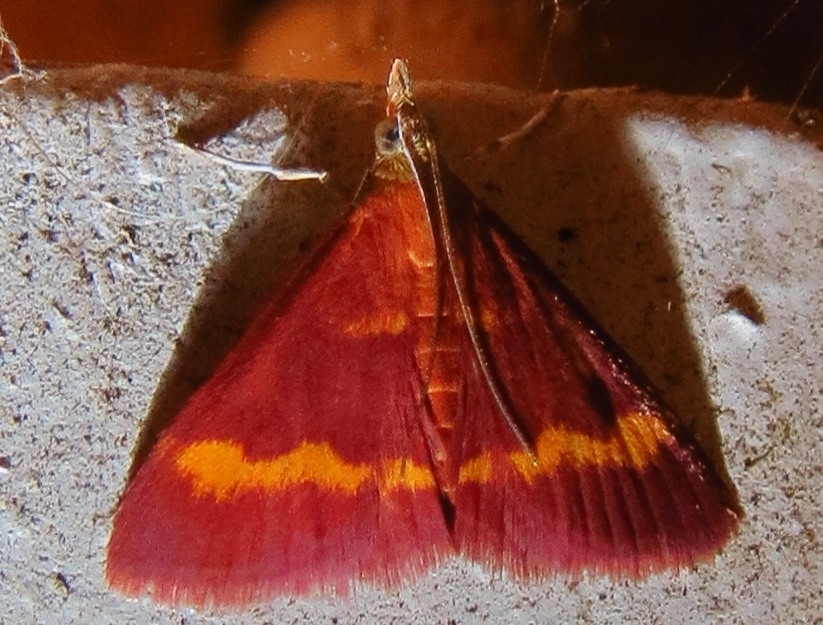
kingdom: Animalia
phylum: Arthropoda
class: Insecta
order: Lepidoptera
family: Crambidae
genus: Pyrausta
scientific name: Pyrausta pseuderosnealis
